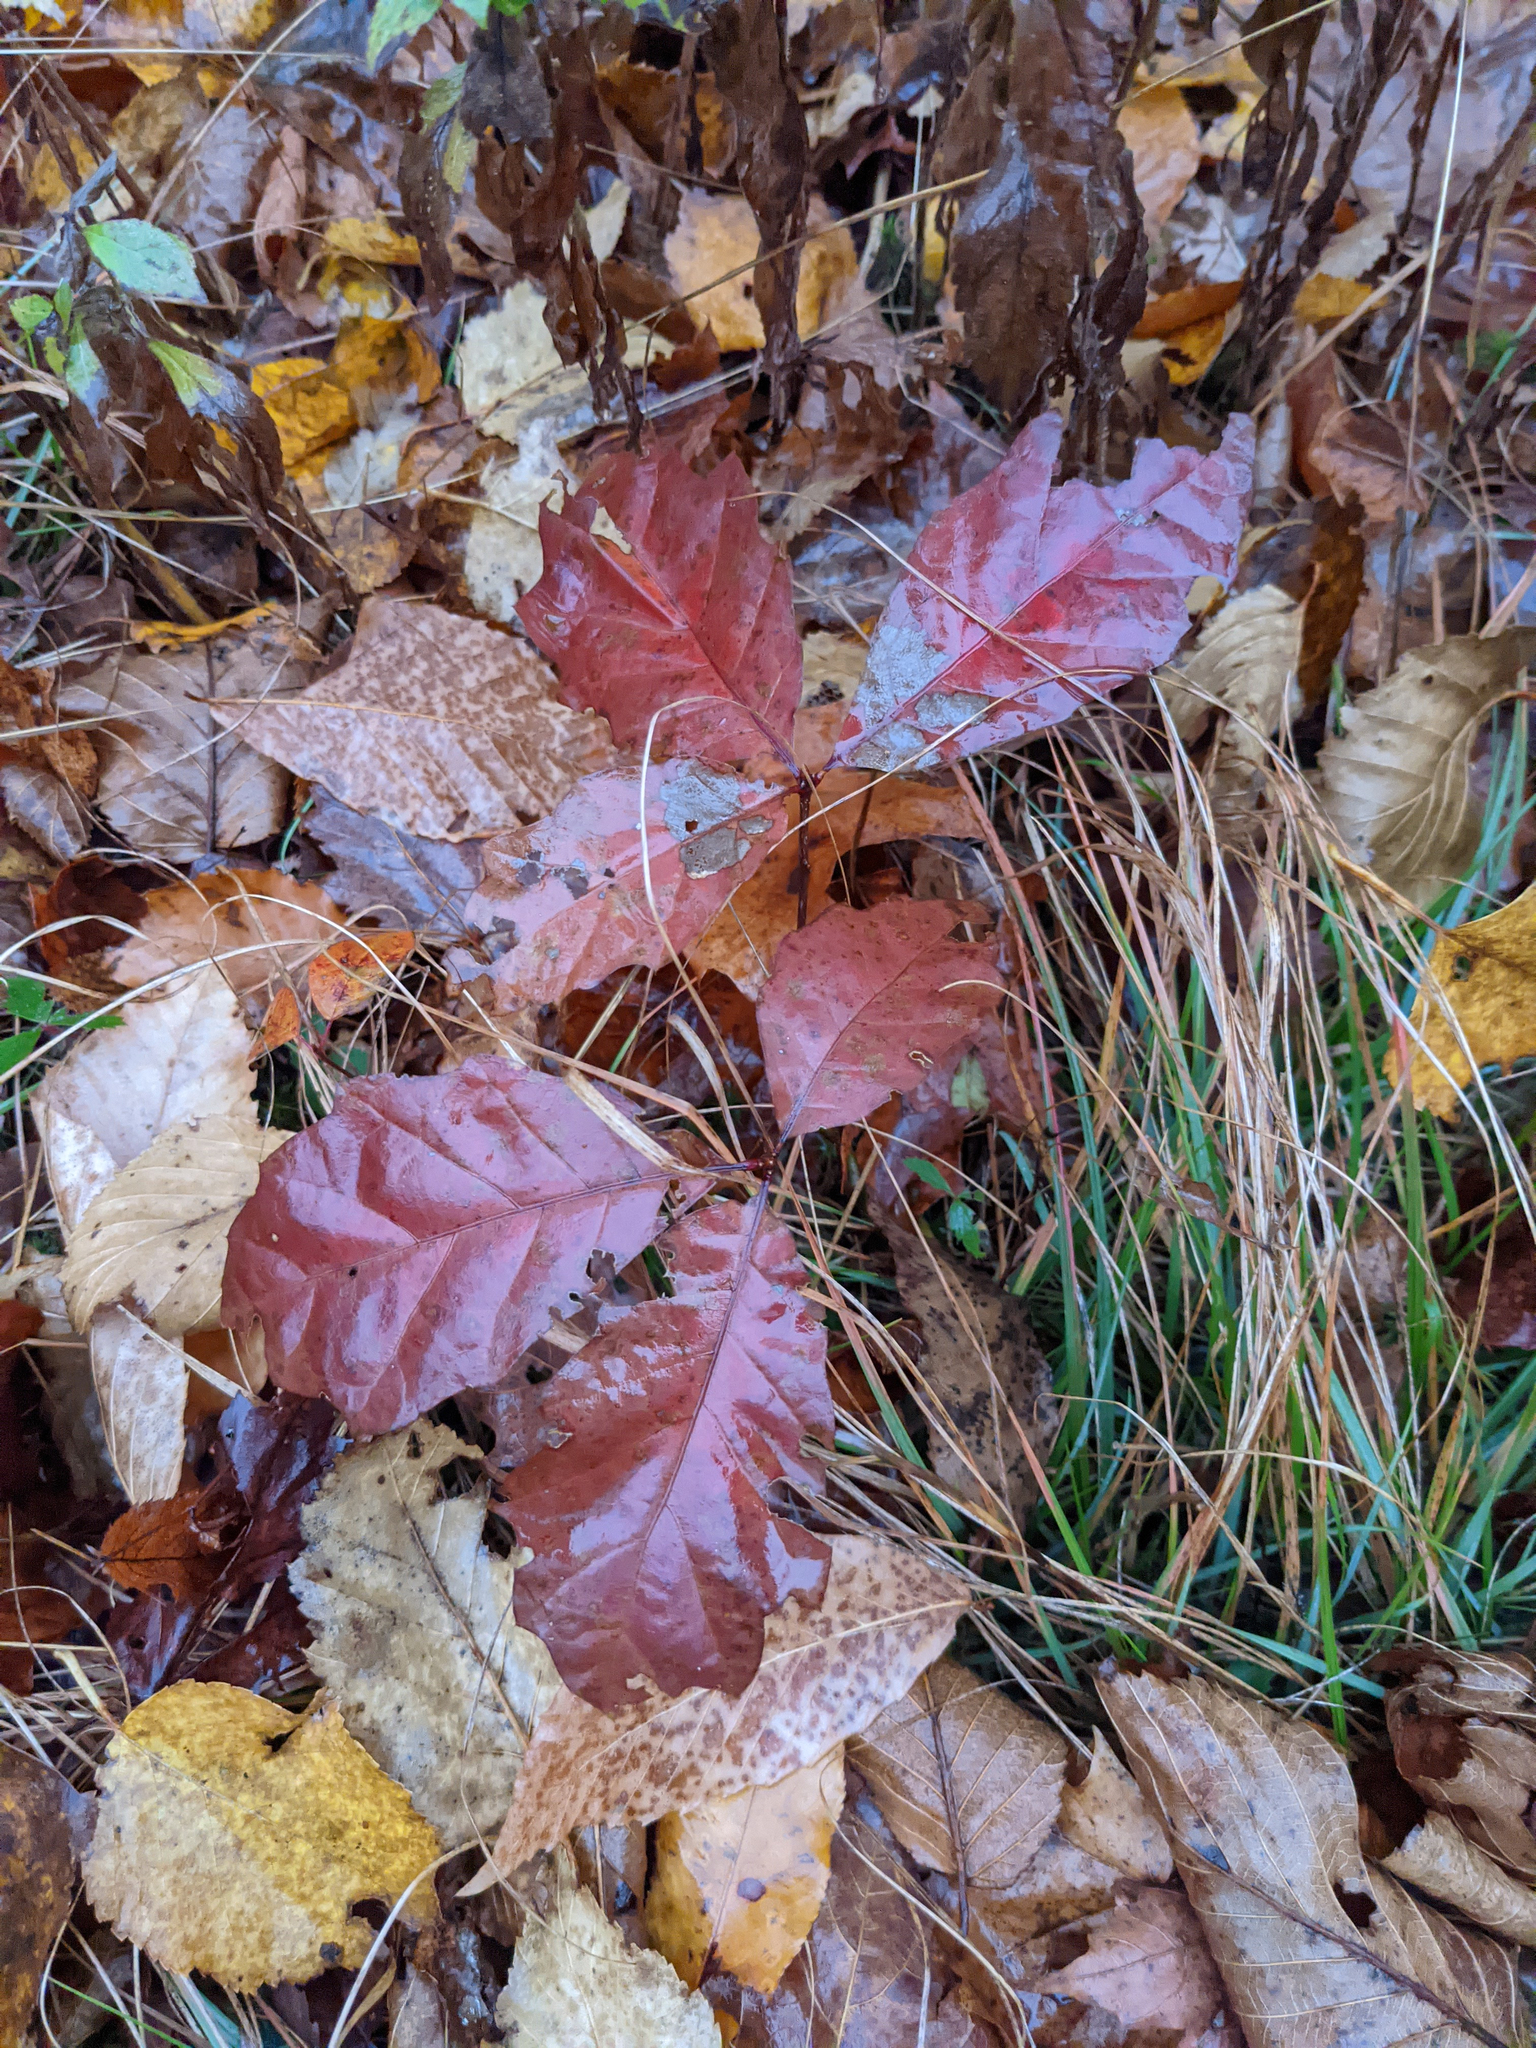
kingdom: Plantae
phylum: Tracheophyta
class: Magnoliopsida
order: Fagales
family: Fagaceae
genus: Quercus
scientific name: Quercus rubra
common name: Red oak
